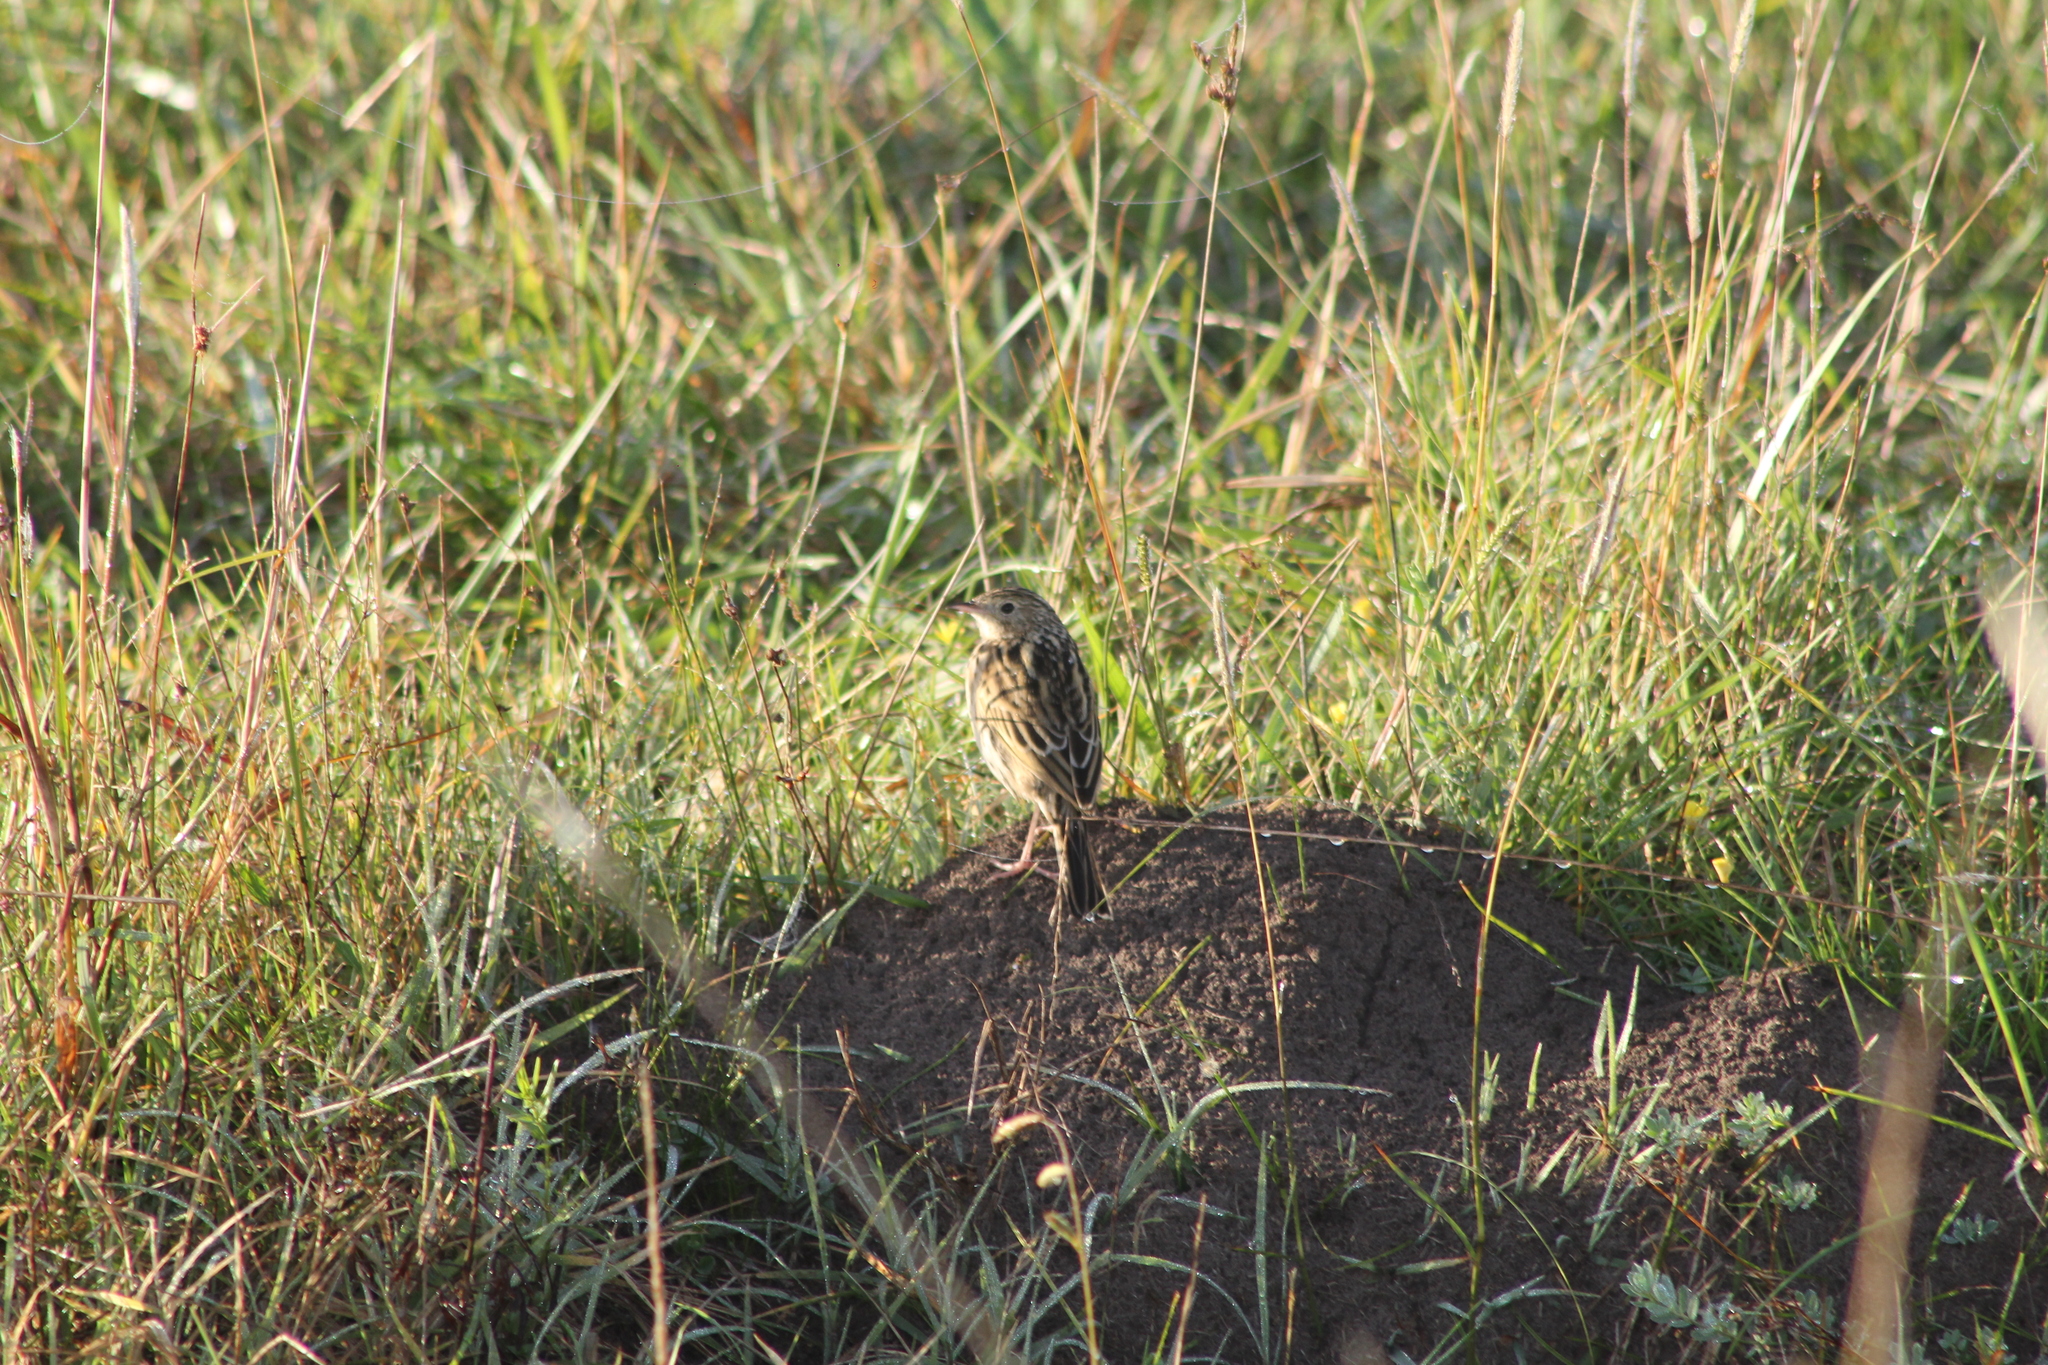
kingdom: Animalia
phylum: Chordata
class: Aves
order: Passeriformes
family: Motacillidae
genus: Anthus
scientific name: Anthus hellmayri
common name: Hellmayr's pipit
